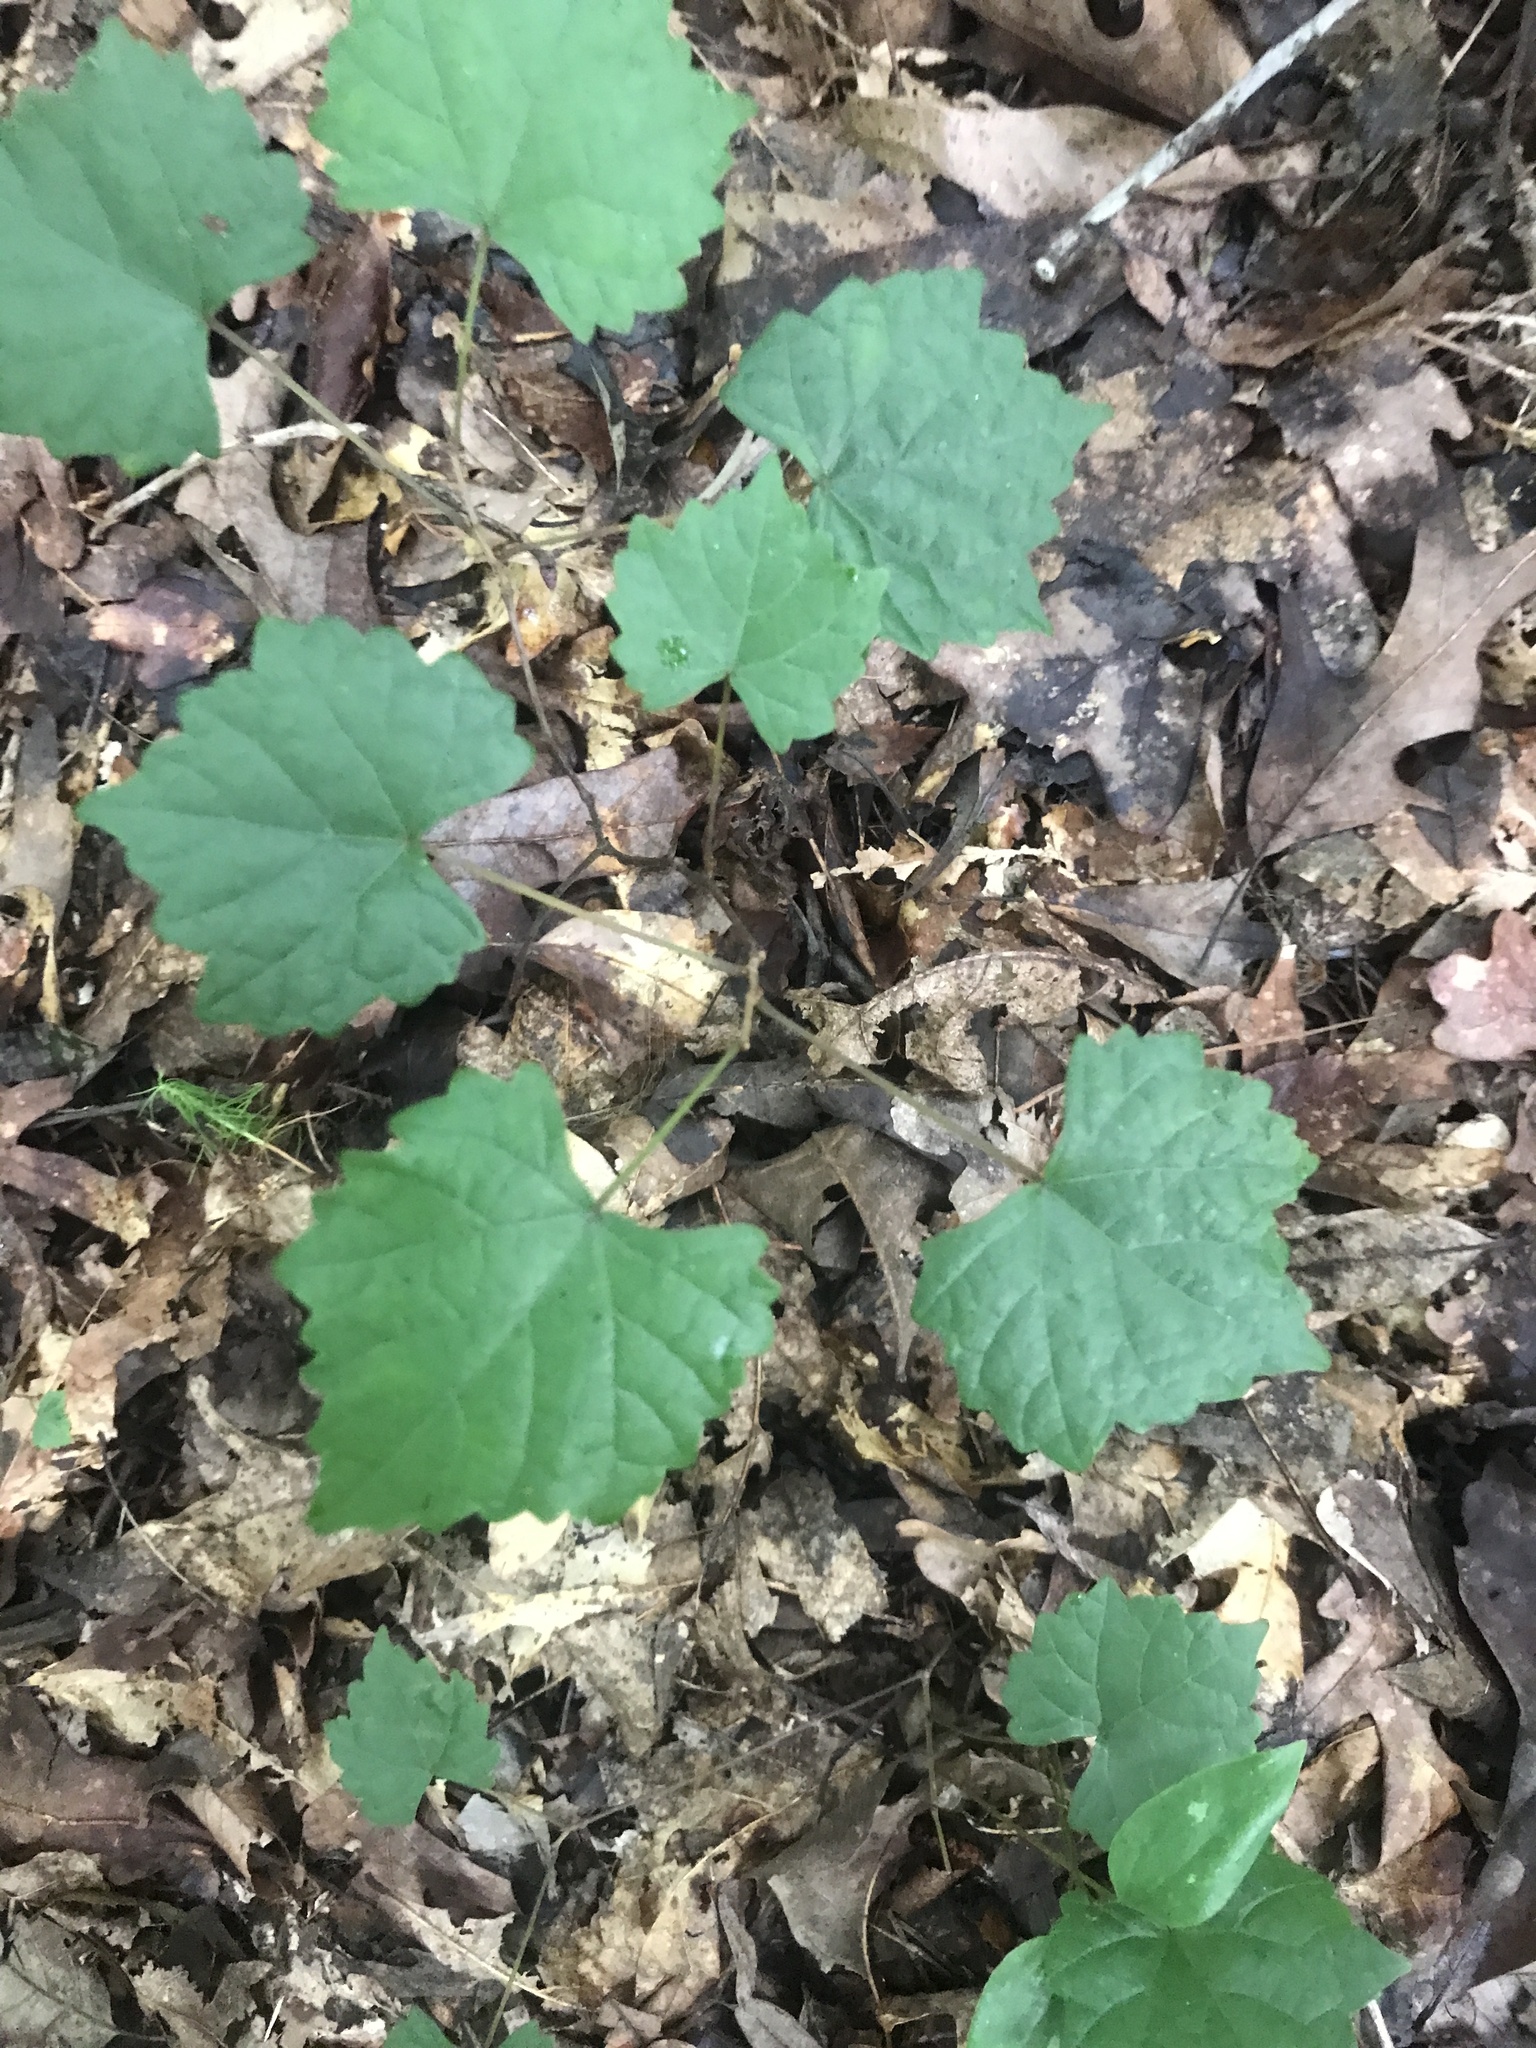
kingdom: Plantae
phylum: Tracheophyta
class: Magnoliopsida
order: Vitales
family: Vitaceae
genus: Vitis
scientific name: Vitis rotundifolia
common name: Muscadine grape
